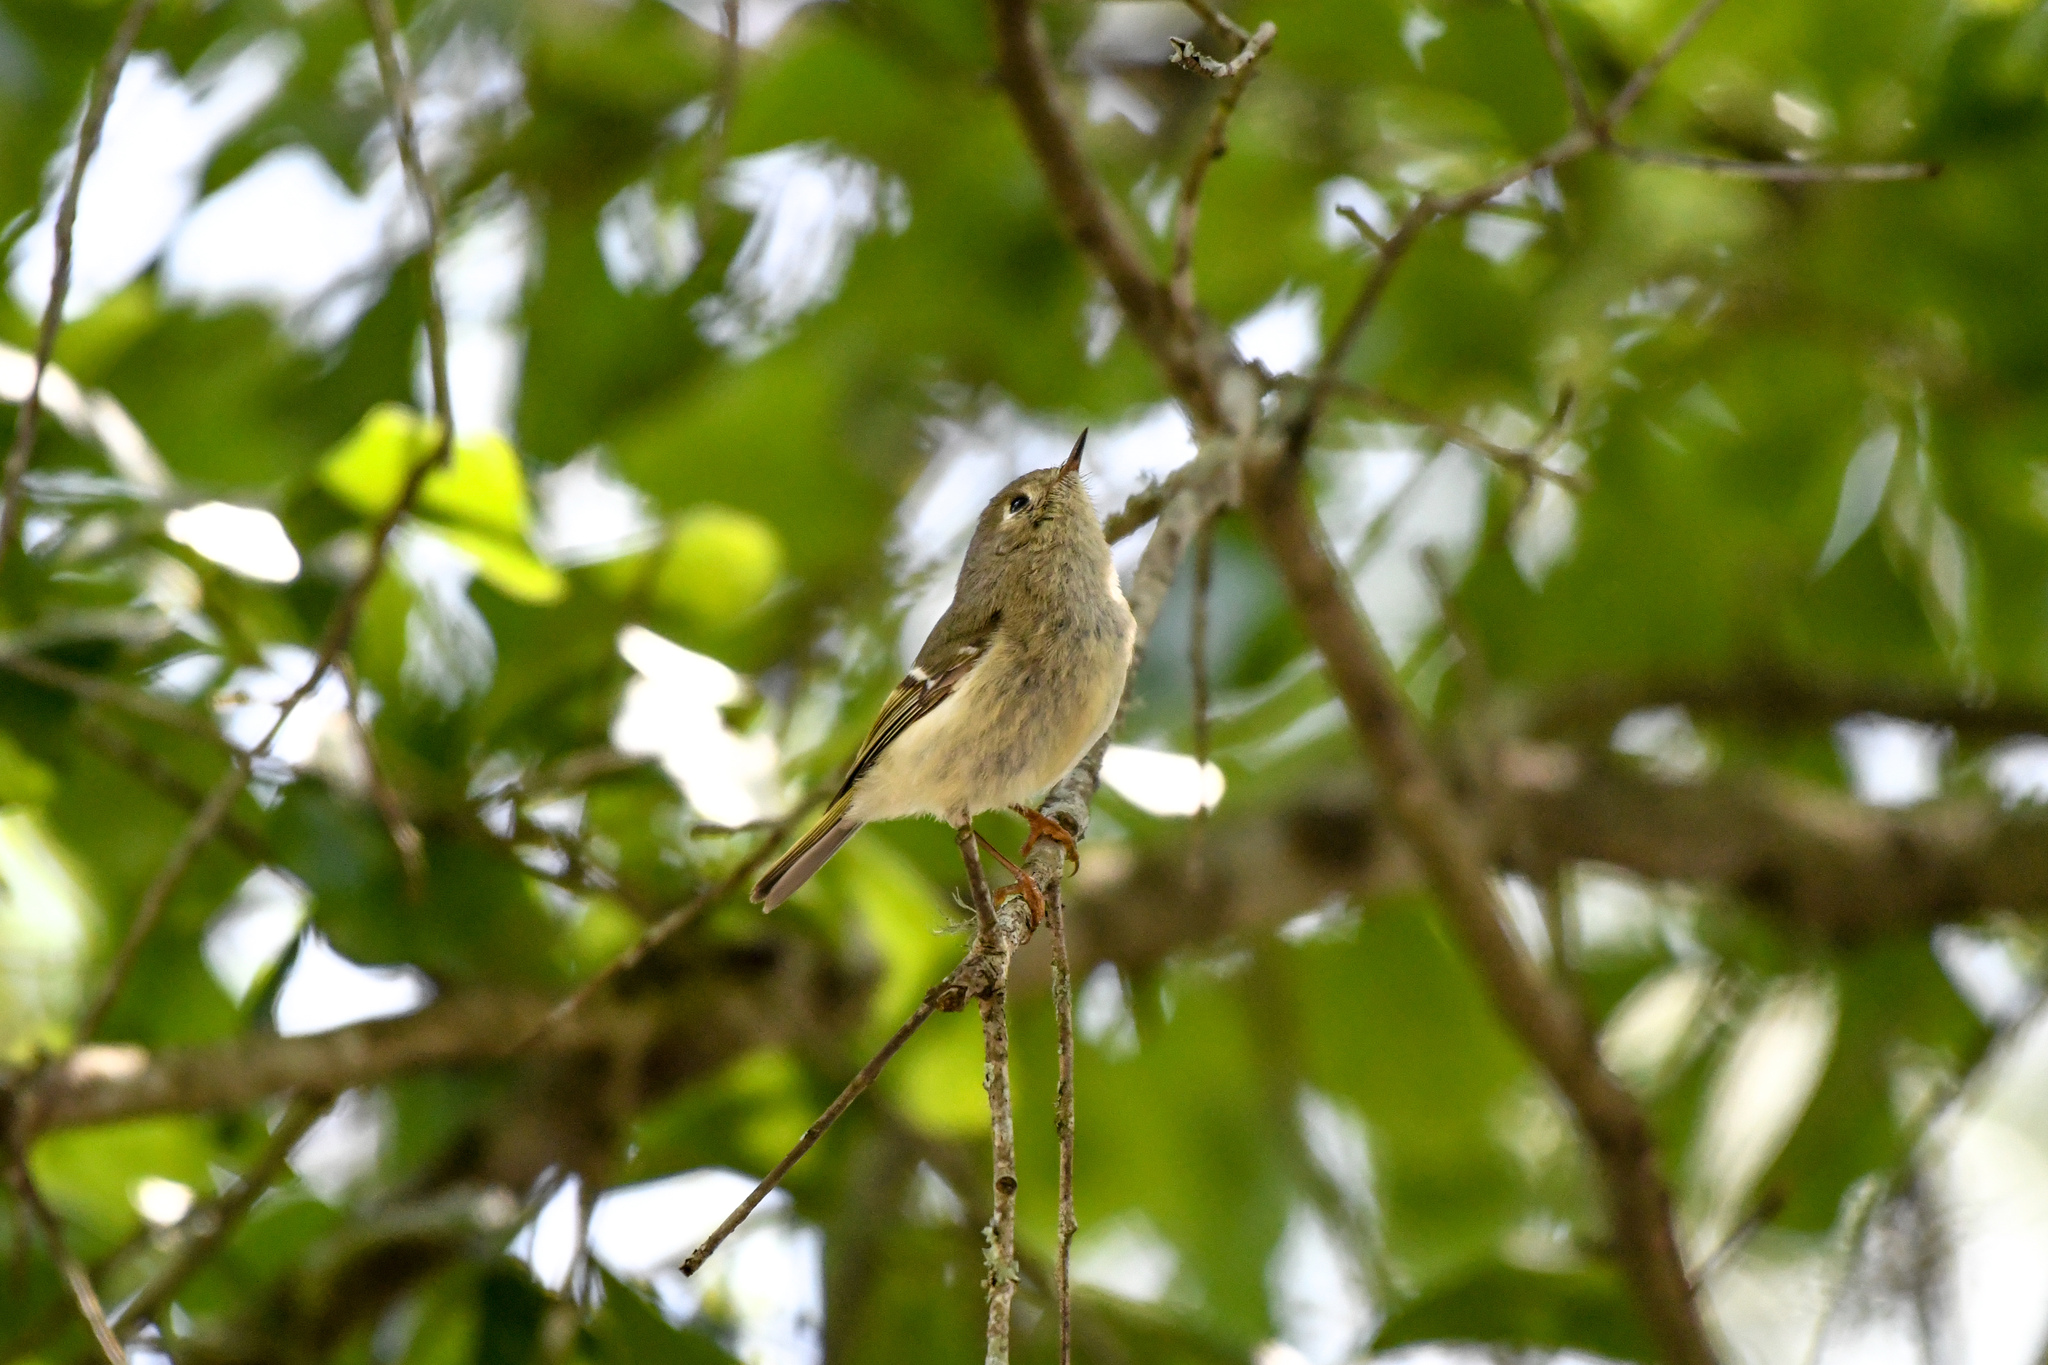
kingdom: Animalia
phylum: Chordata
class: Aves
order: Passeriformes
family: Regulidae
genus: Regulus
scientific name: Regulus calendula
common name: Ruby-crowned kinglet
